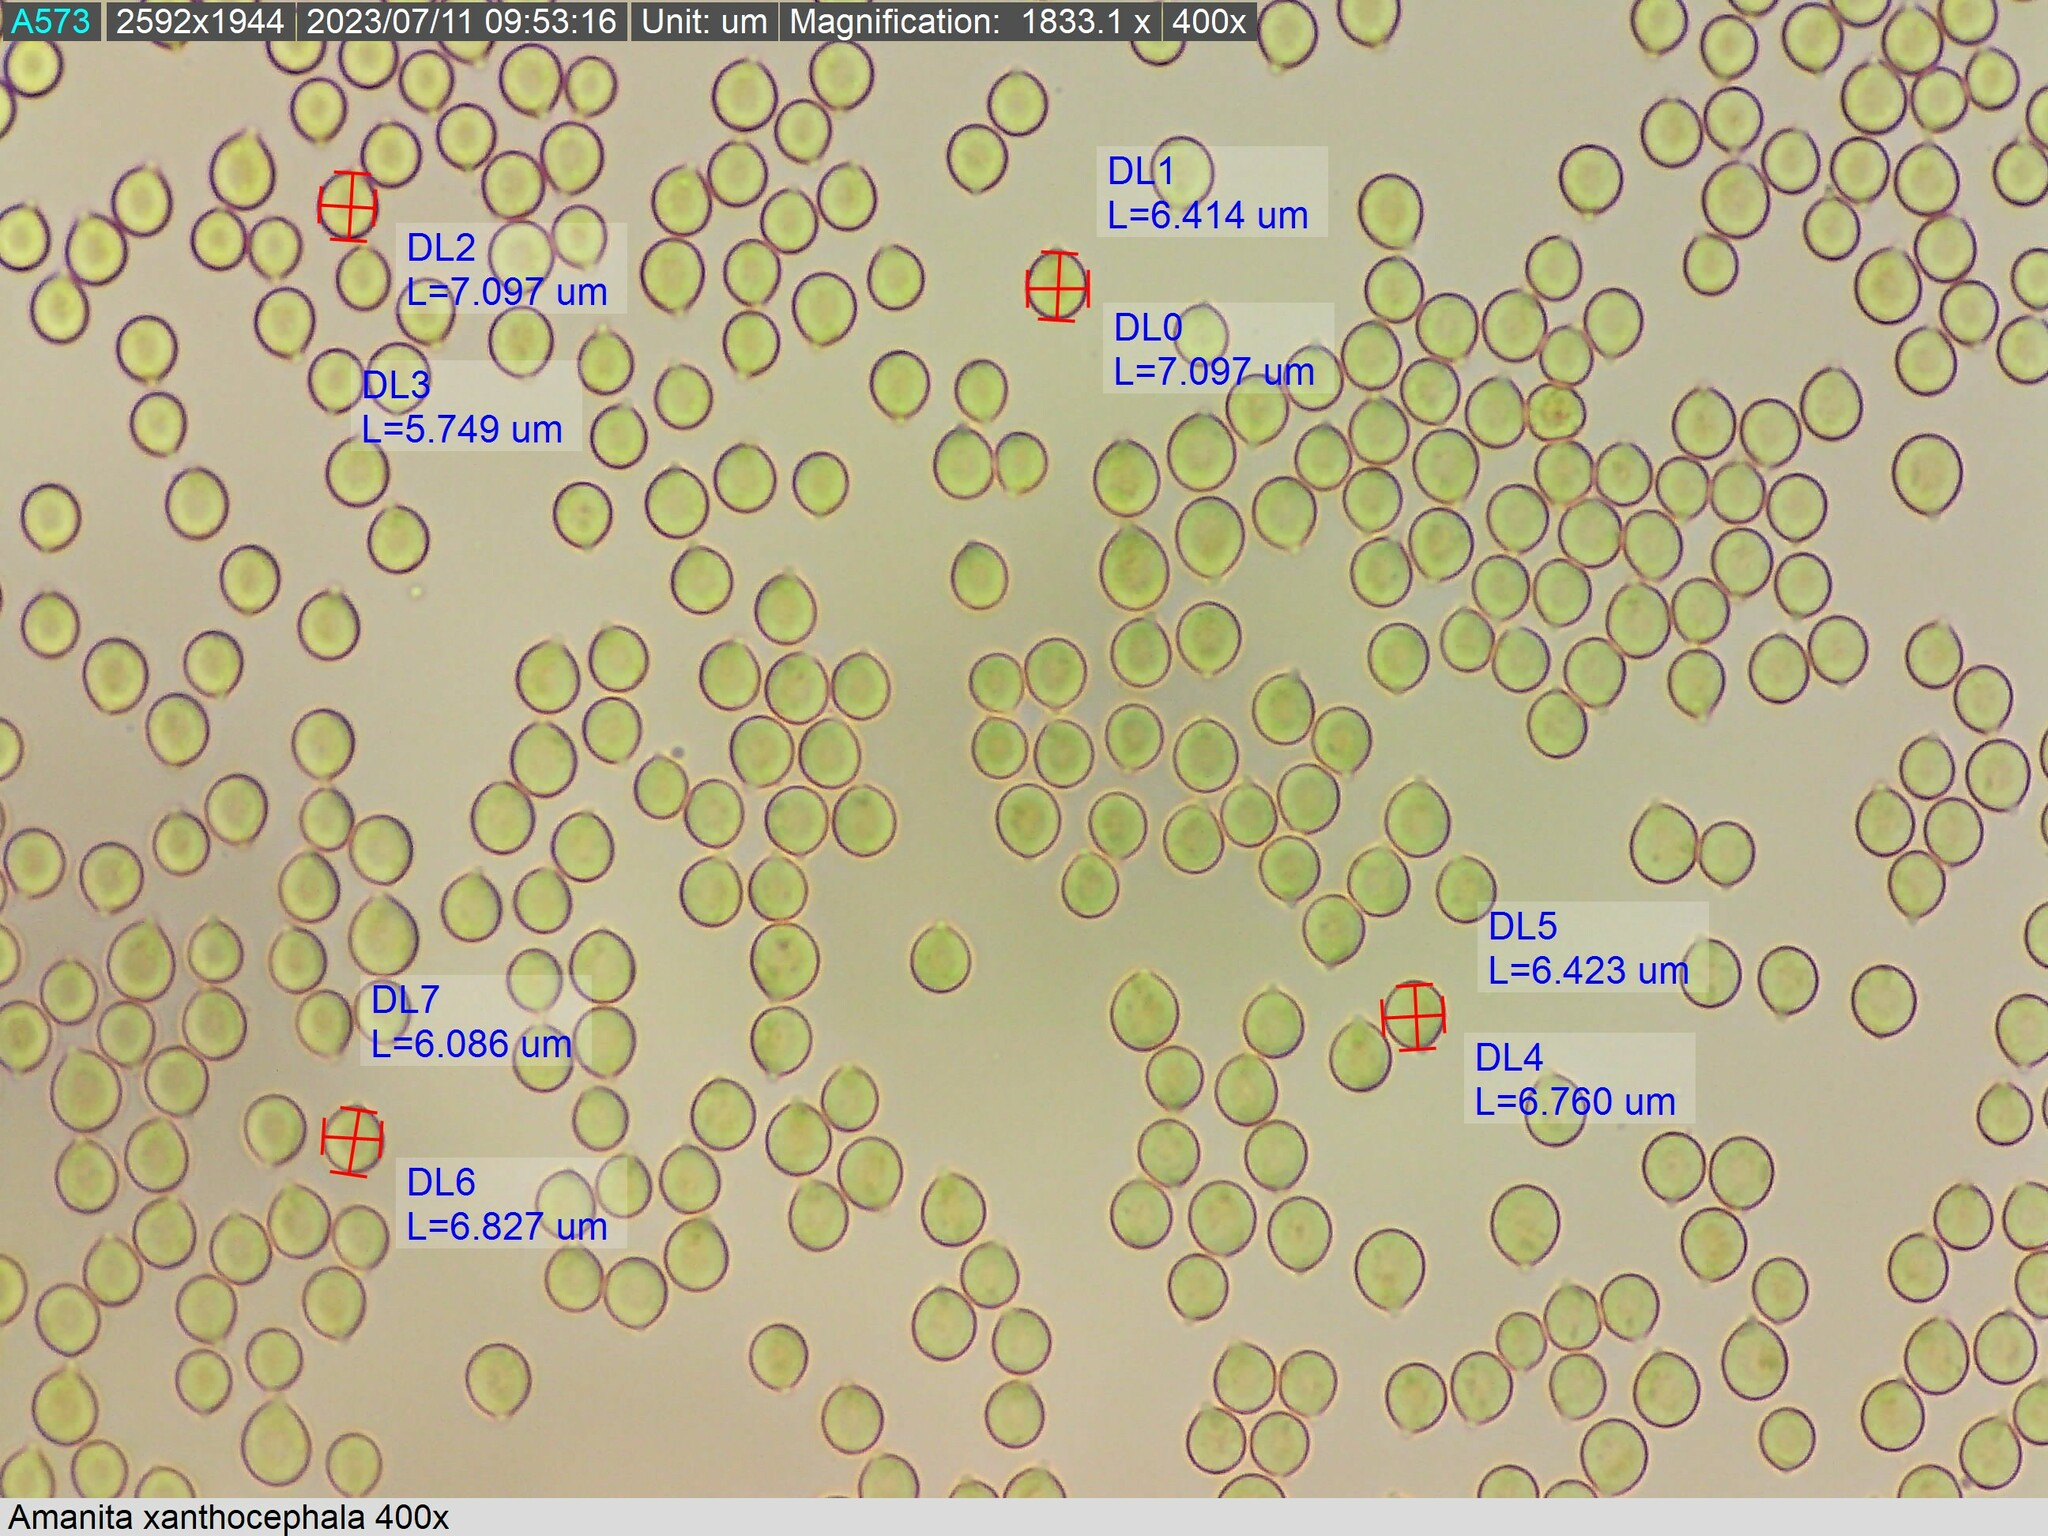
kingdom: Fungi
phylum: Basidiomycota
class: Agaricomycetes
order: Agaricales
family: Amanitaceae
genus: Amanita
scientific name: Amanita xanthocephala
